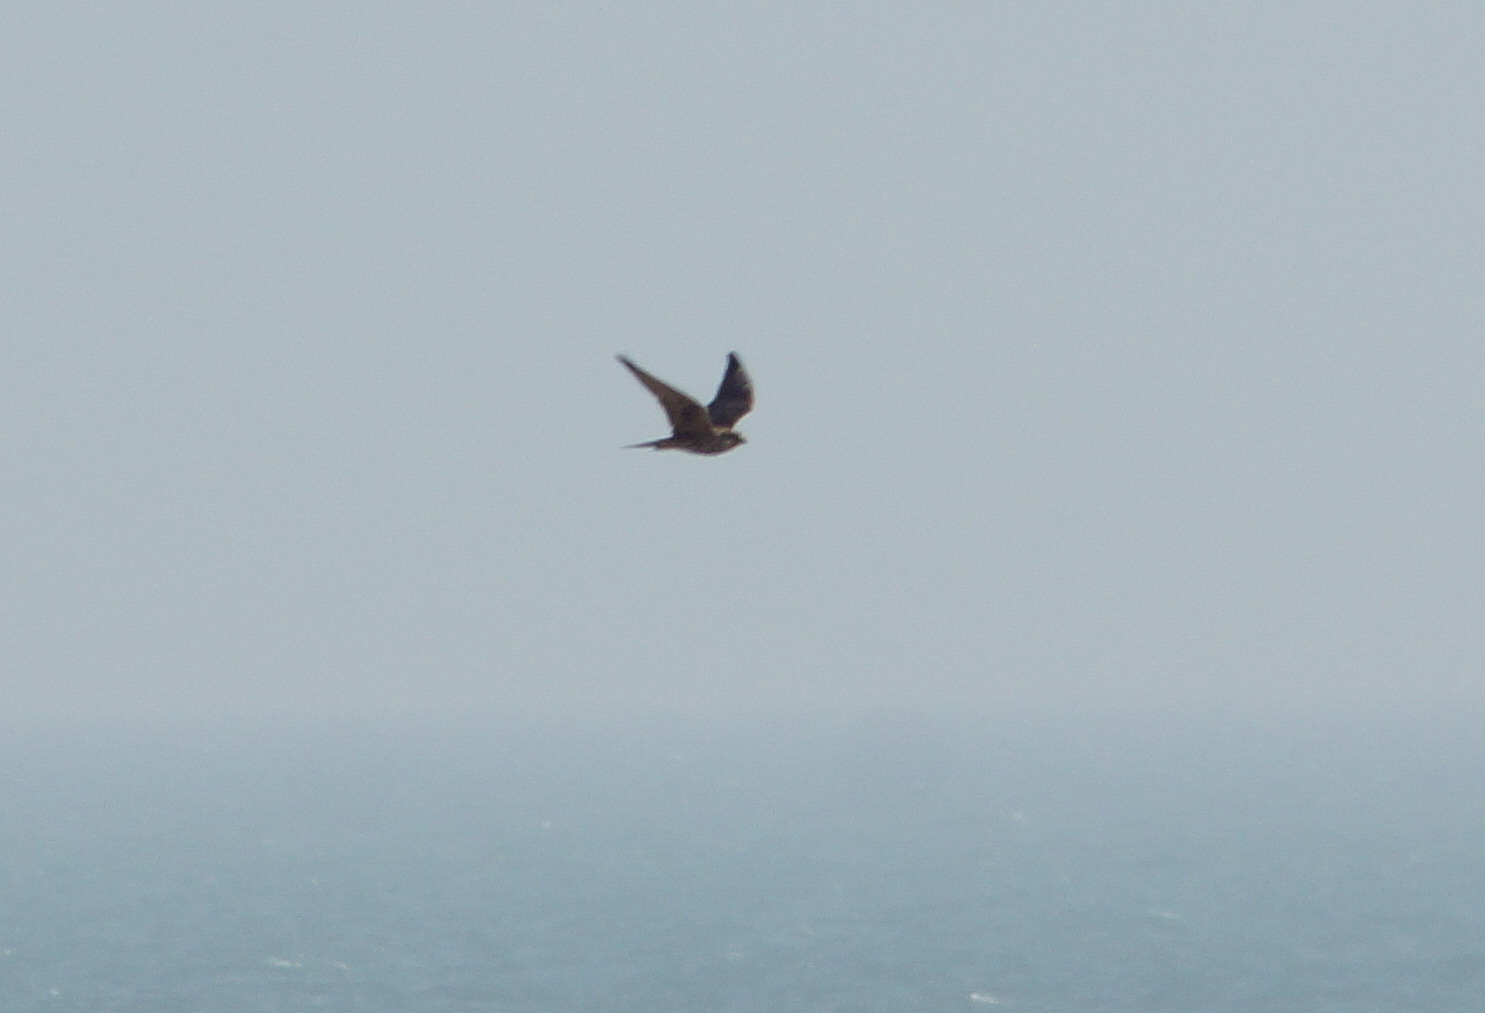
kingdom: Animalia
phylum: Chordata
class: Aves
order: Falconiformes
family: Falconidae
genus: Falco
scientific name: Falco cherrug
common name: Saker falcon
